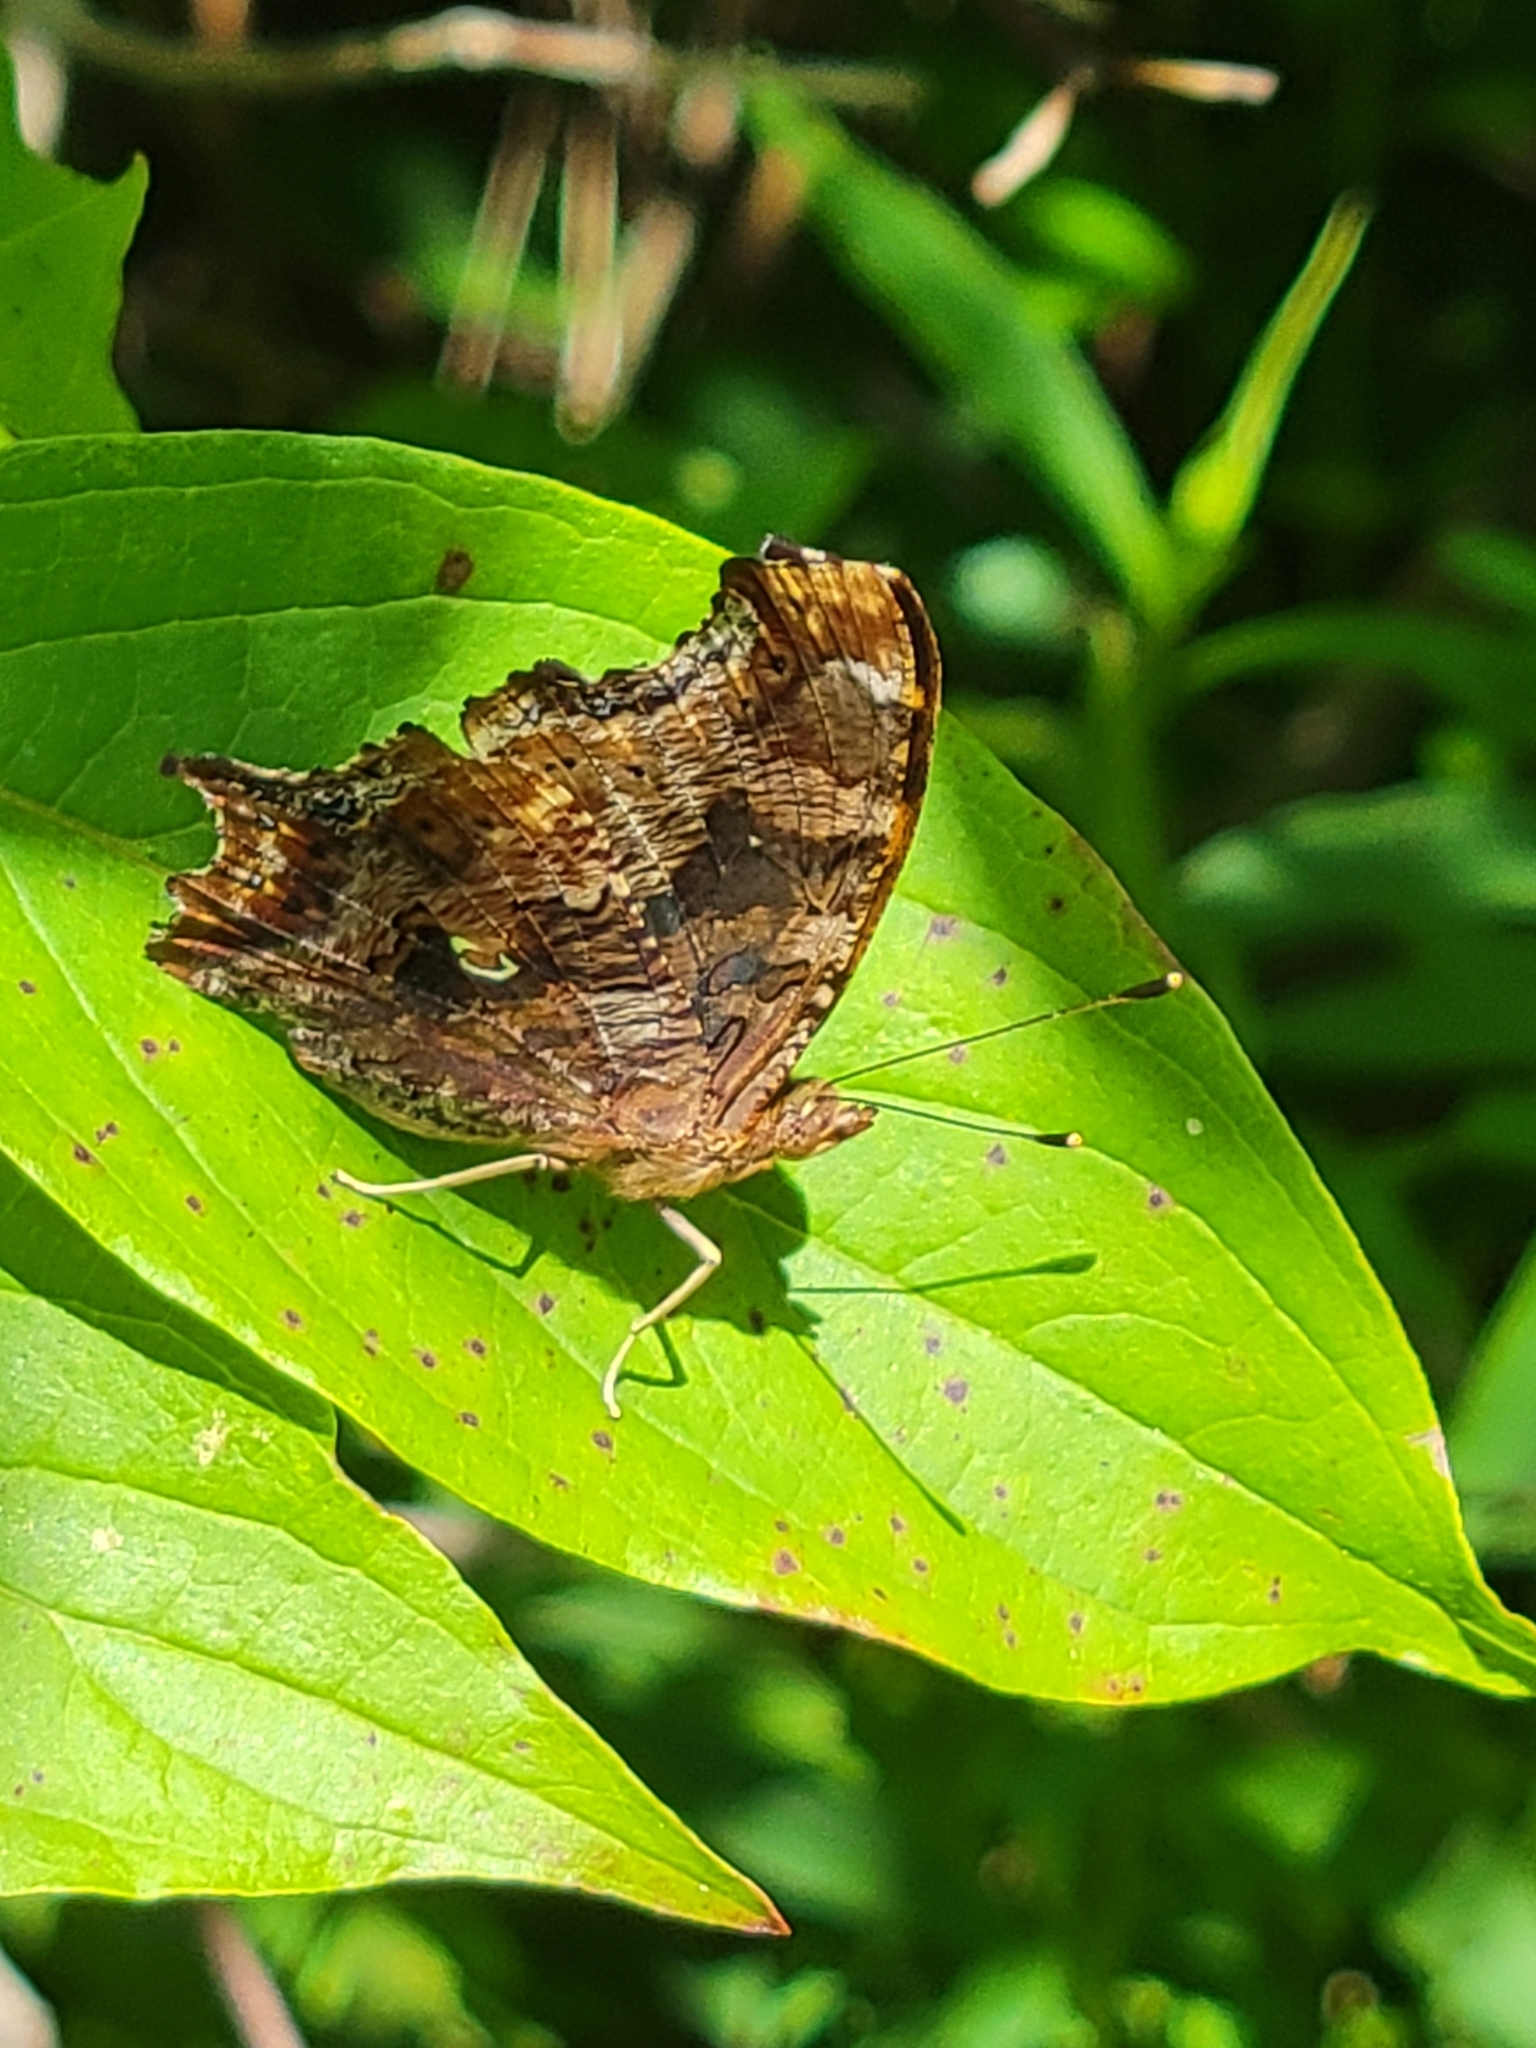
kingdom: Animalia
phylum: Arthropoda
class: Insecta
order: Lepidoptera
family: Nymphalidae
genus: Polygonia
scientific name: Polygonia comma
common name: Eastern comma
